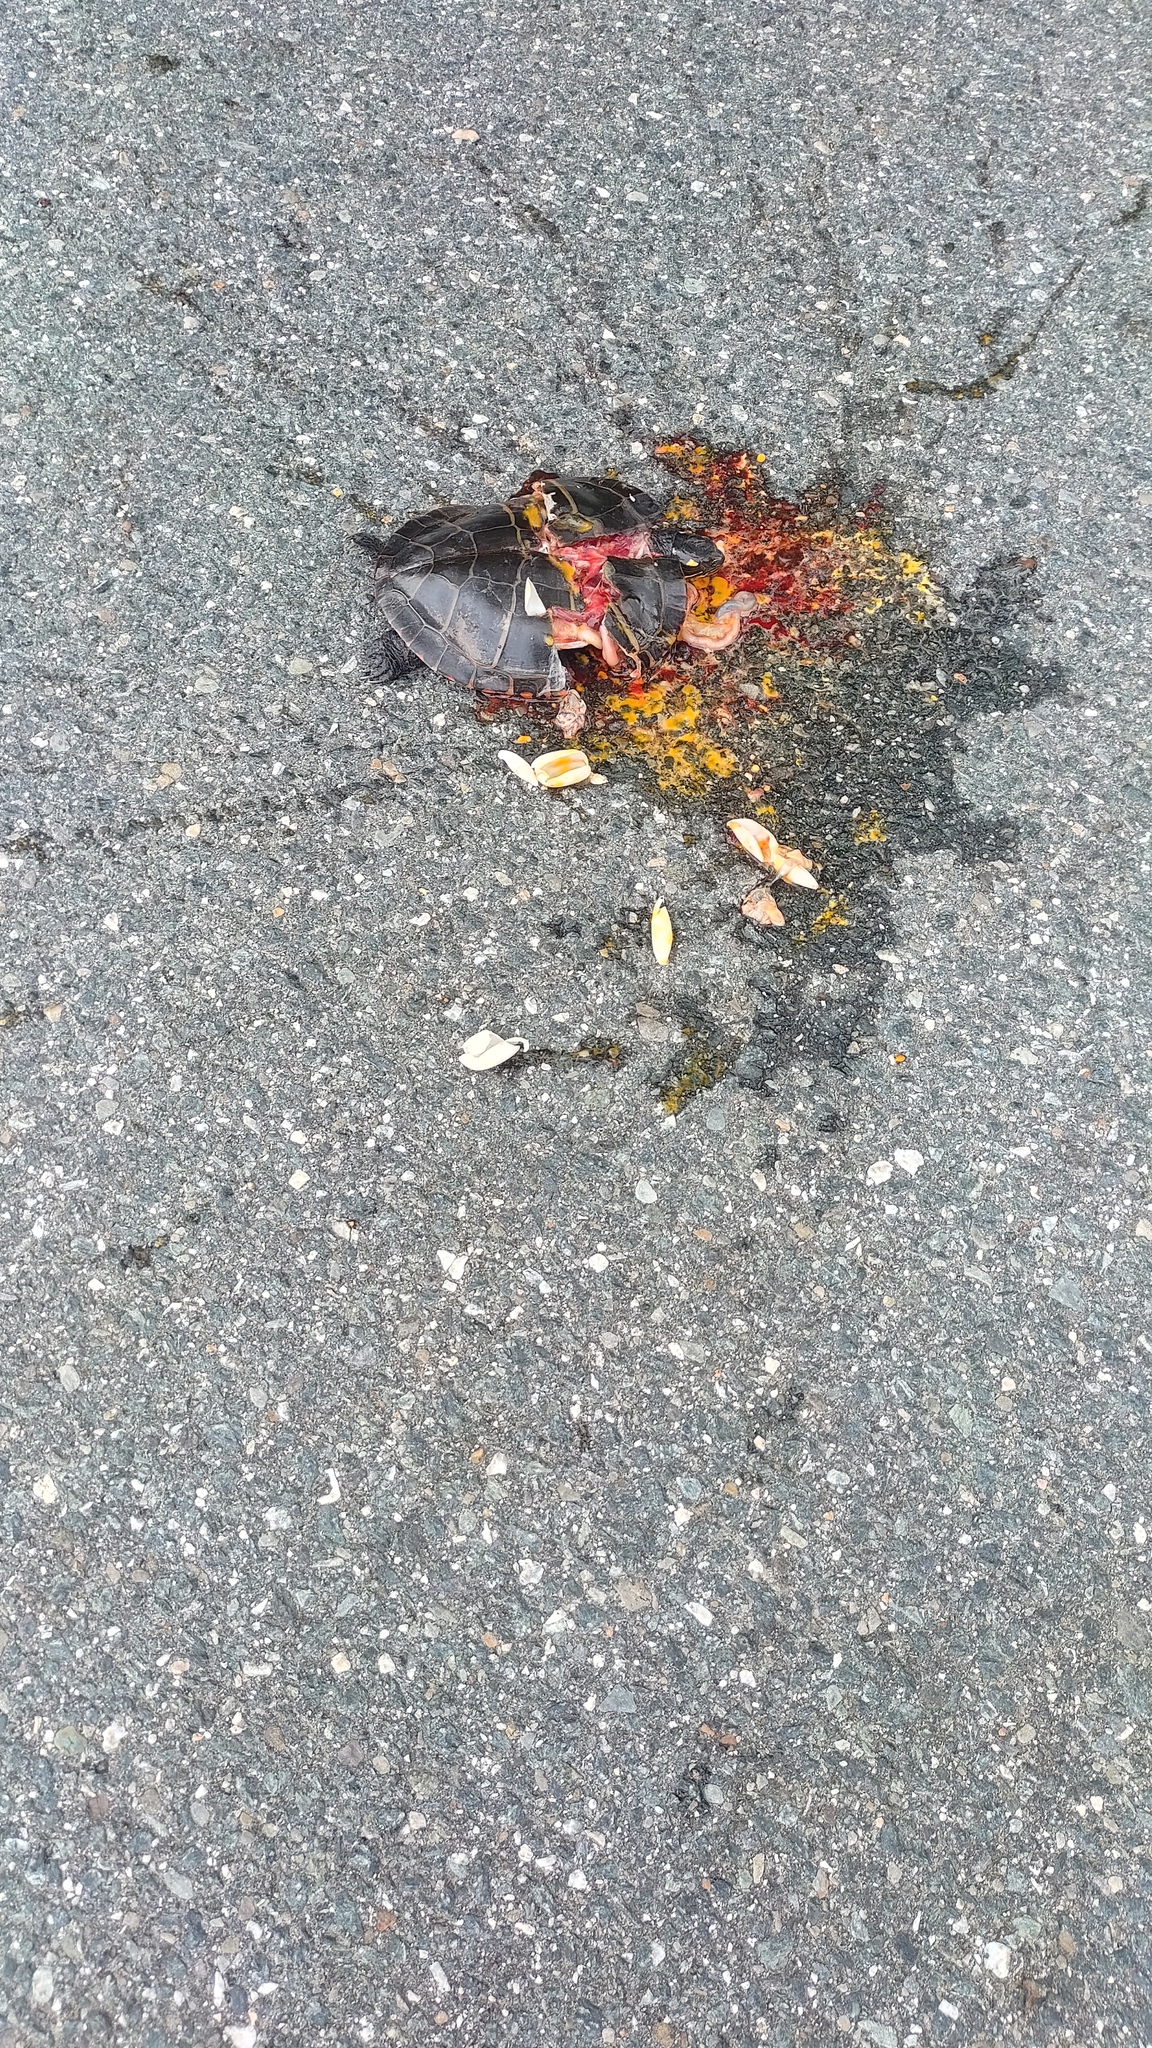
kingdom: Animalia
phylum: Chordata
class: Testudines
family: Emydidae
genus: Chrysemys
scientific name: Chrysemys picta
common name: Painted turtle
